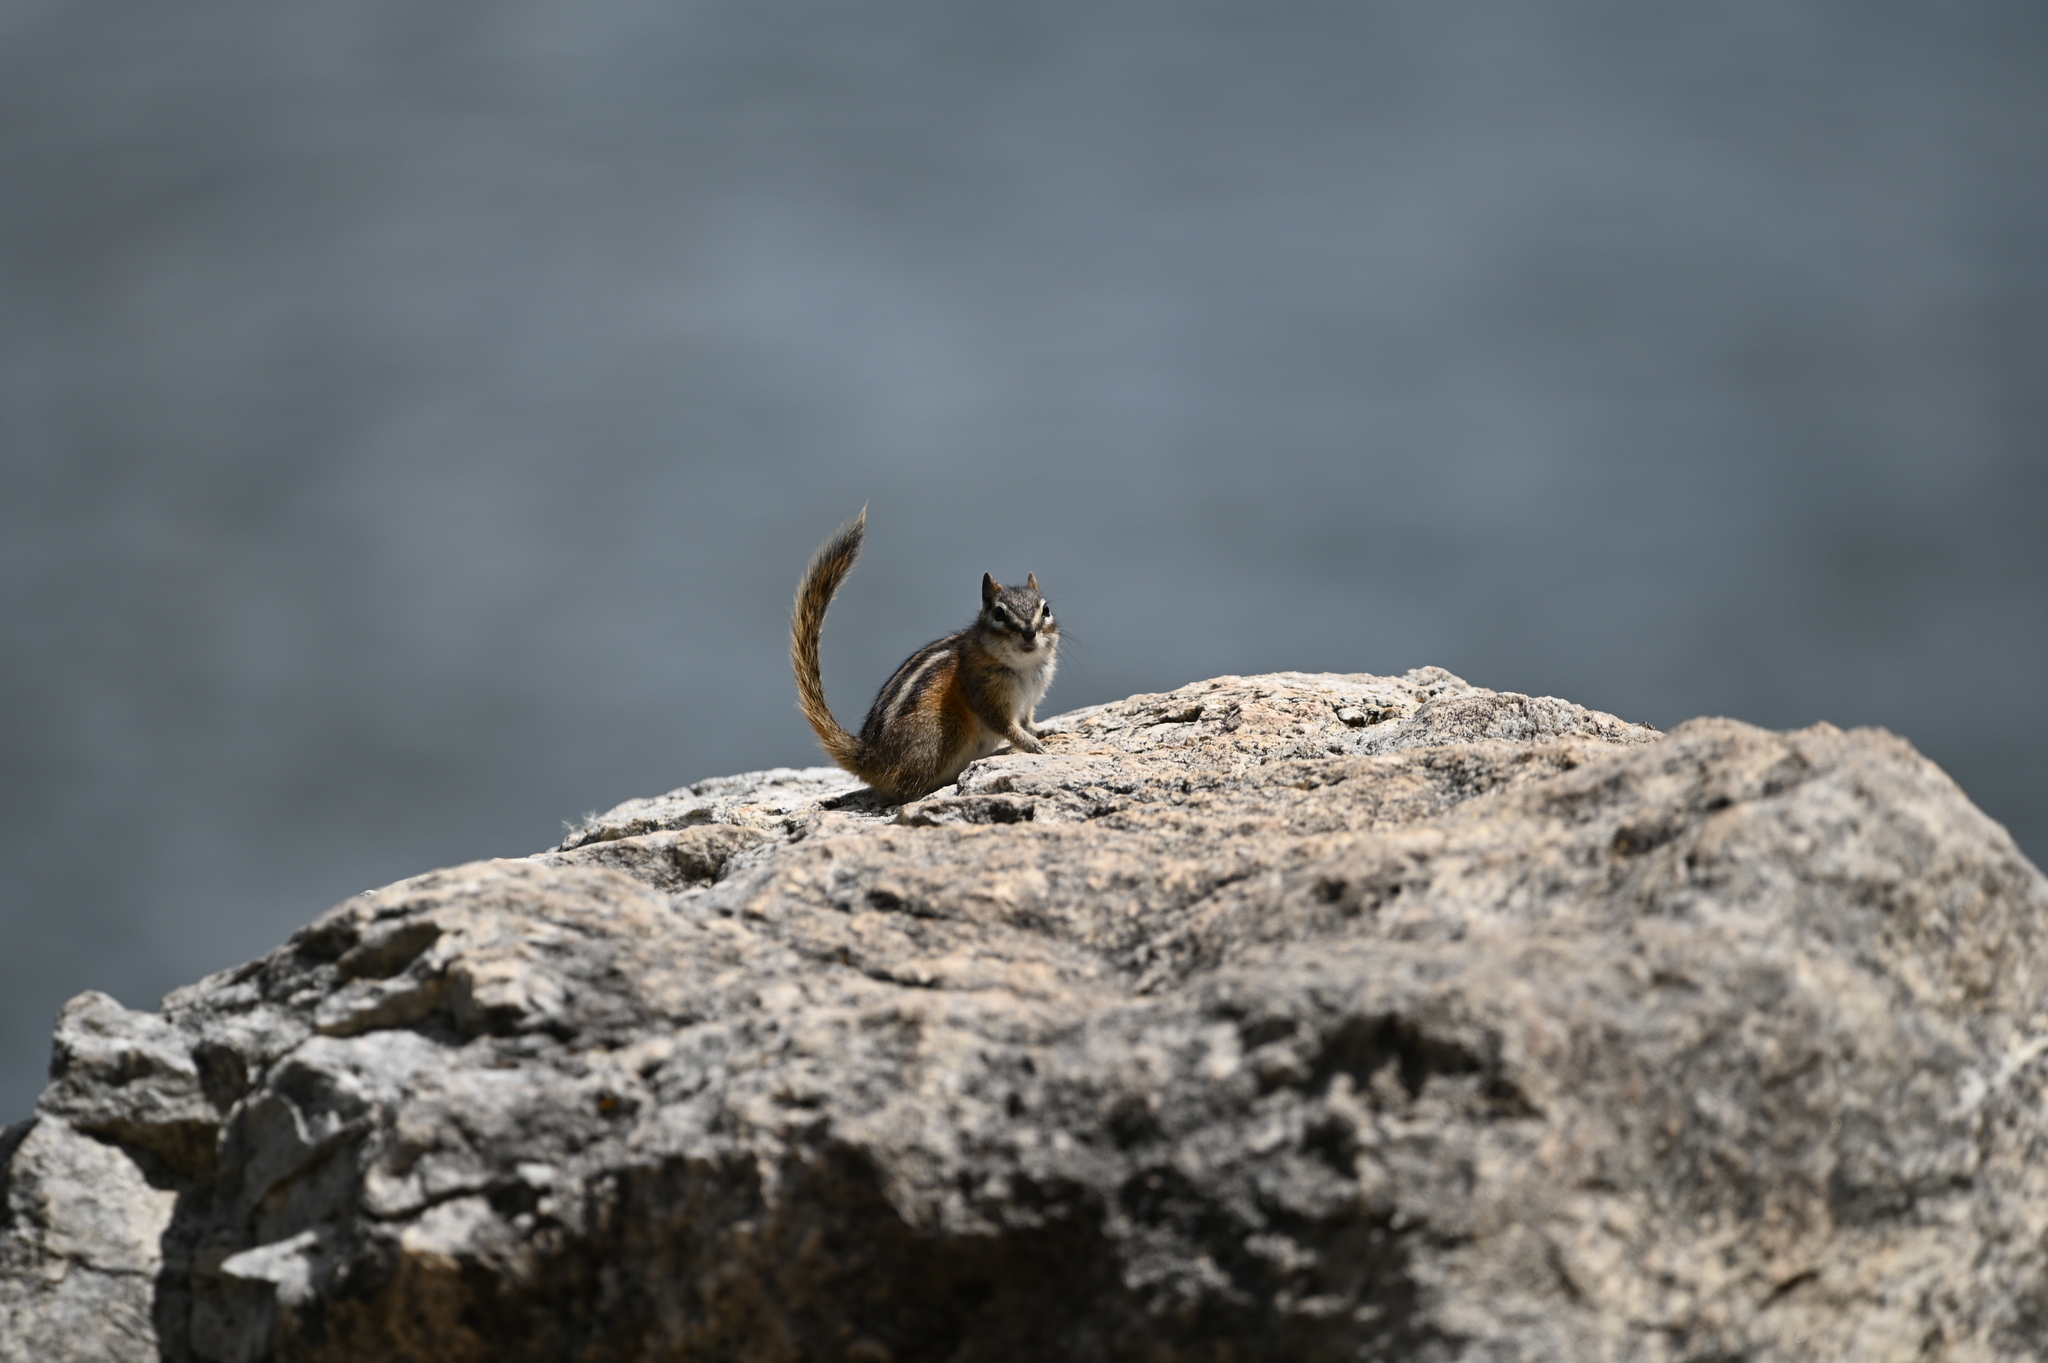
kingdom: Animalia
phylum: Chordata
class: Mammalia
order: Rodentia
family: Sciuridae
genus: Tamias
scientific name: Tamias minimus
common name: Least chipmunk
